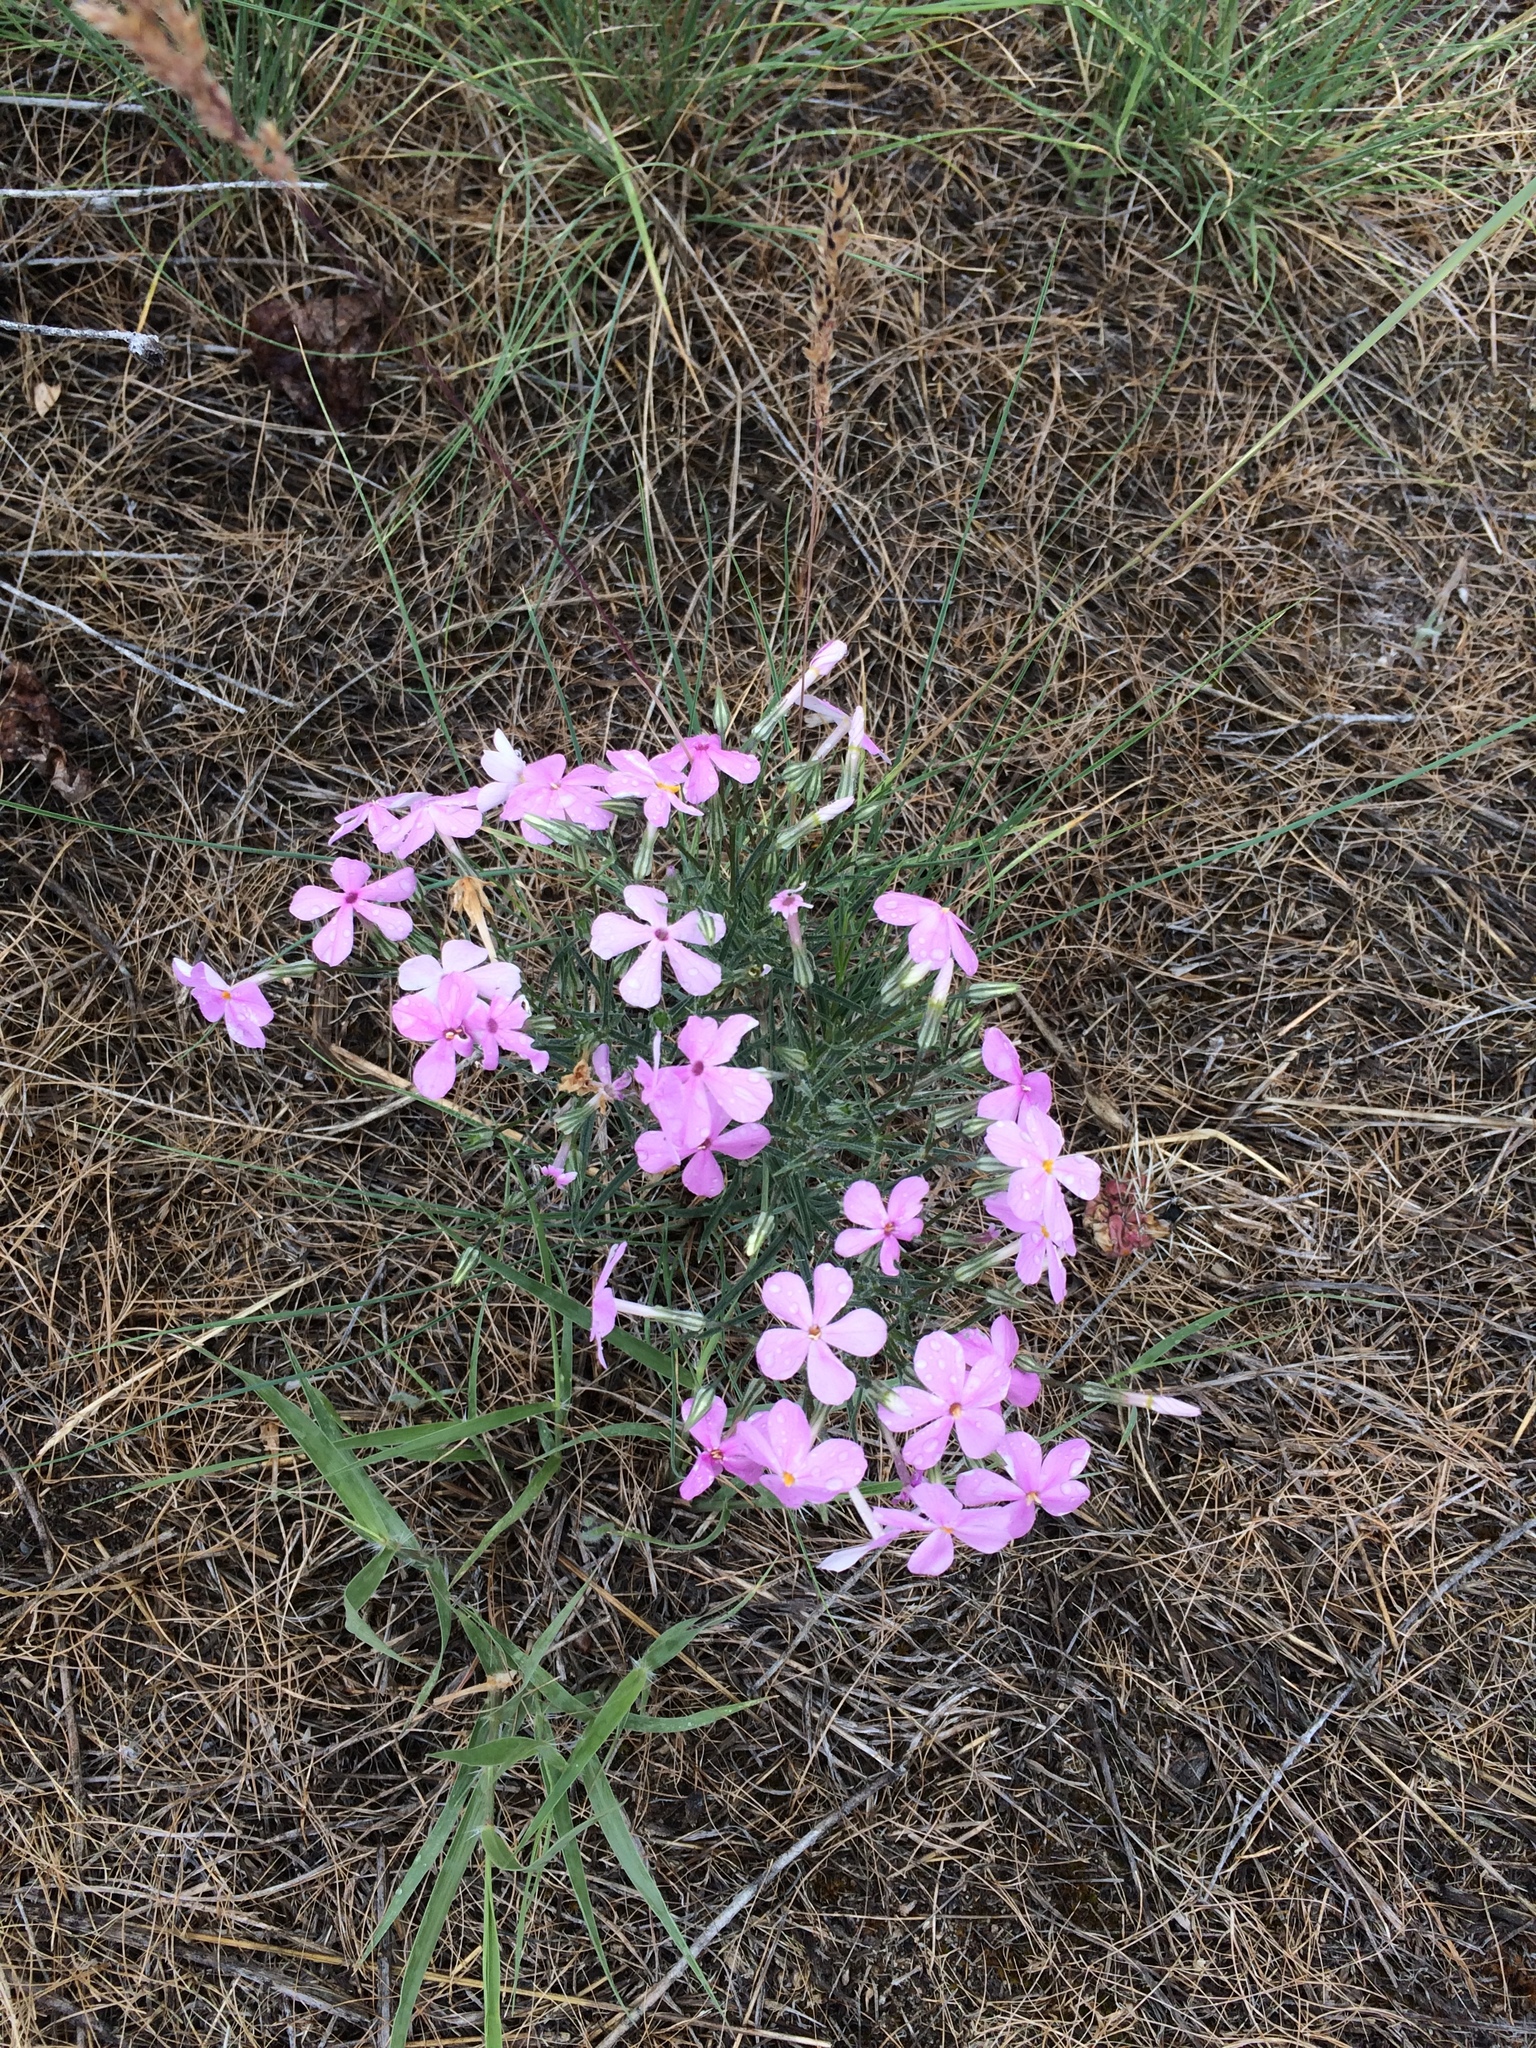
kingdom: Plantae
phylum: Tracheophyta
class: Magnoliopsida
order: Ericales
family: Polemoniaceae
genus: Phlox
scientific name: Phlox longifolia
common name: Longleaf phlox
